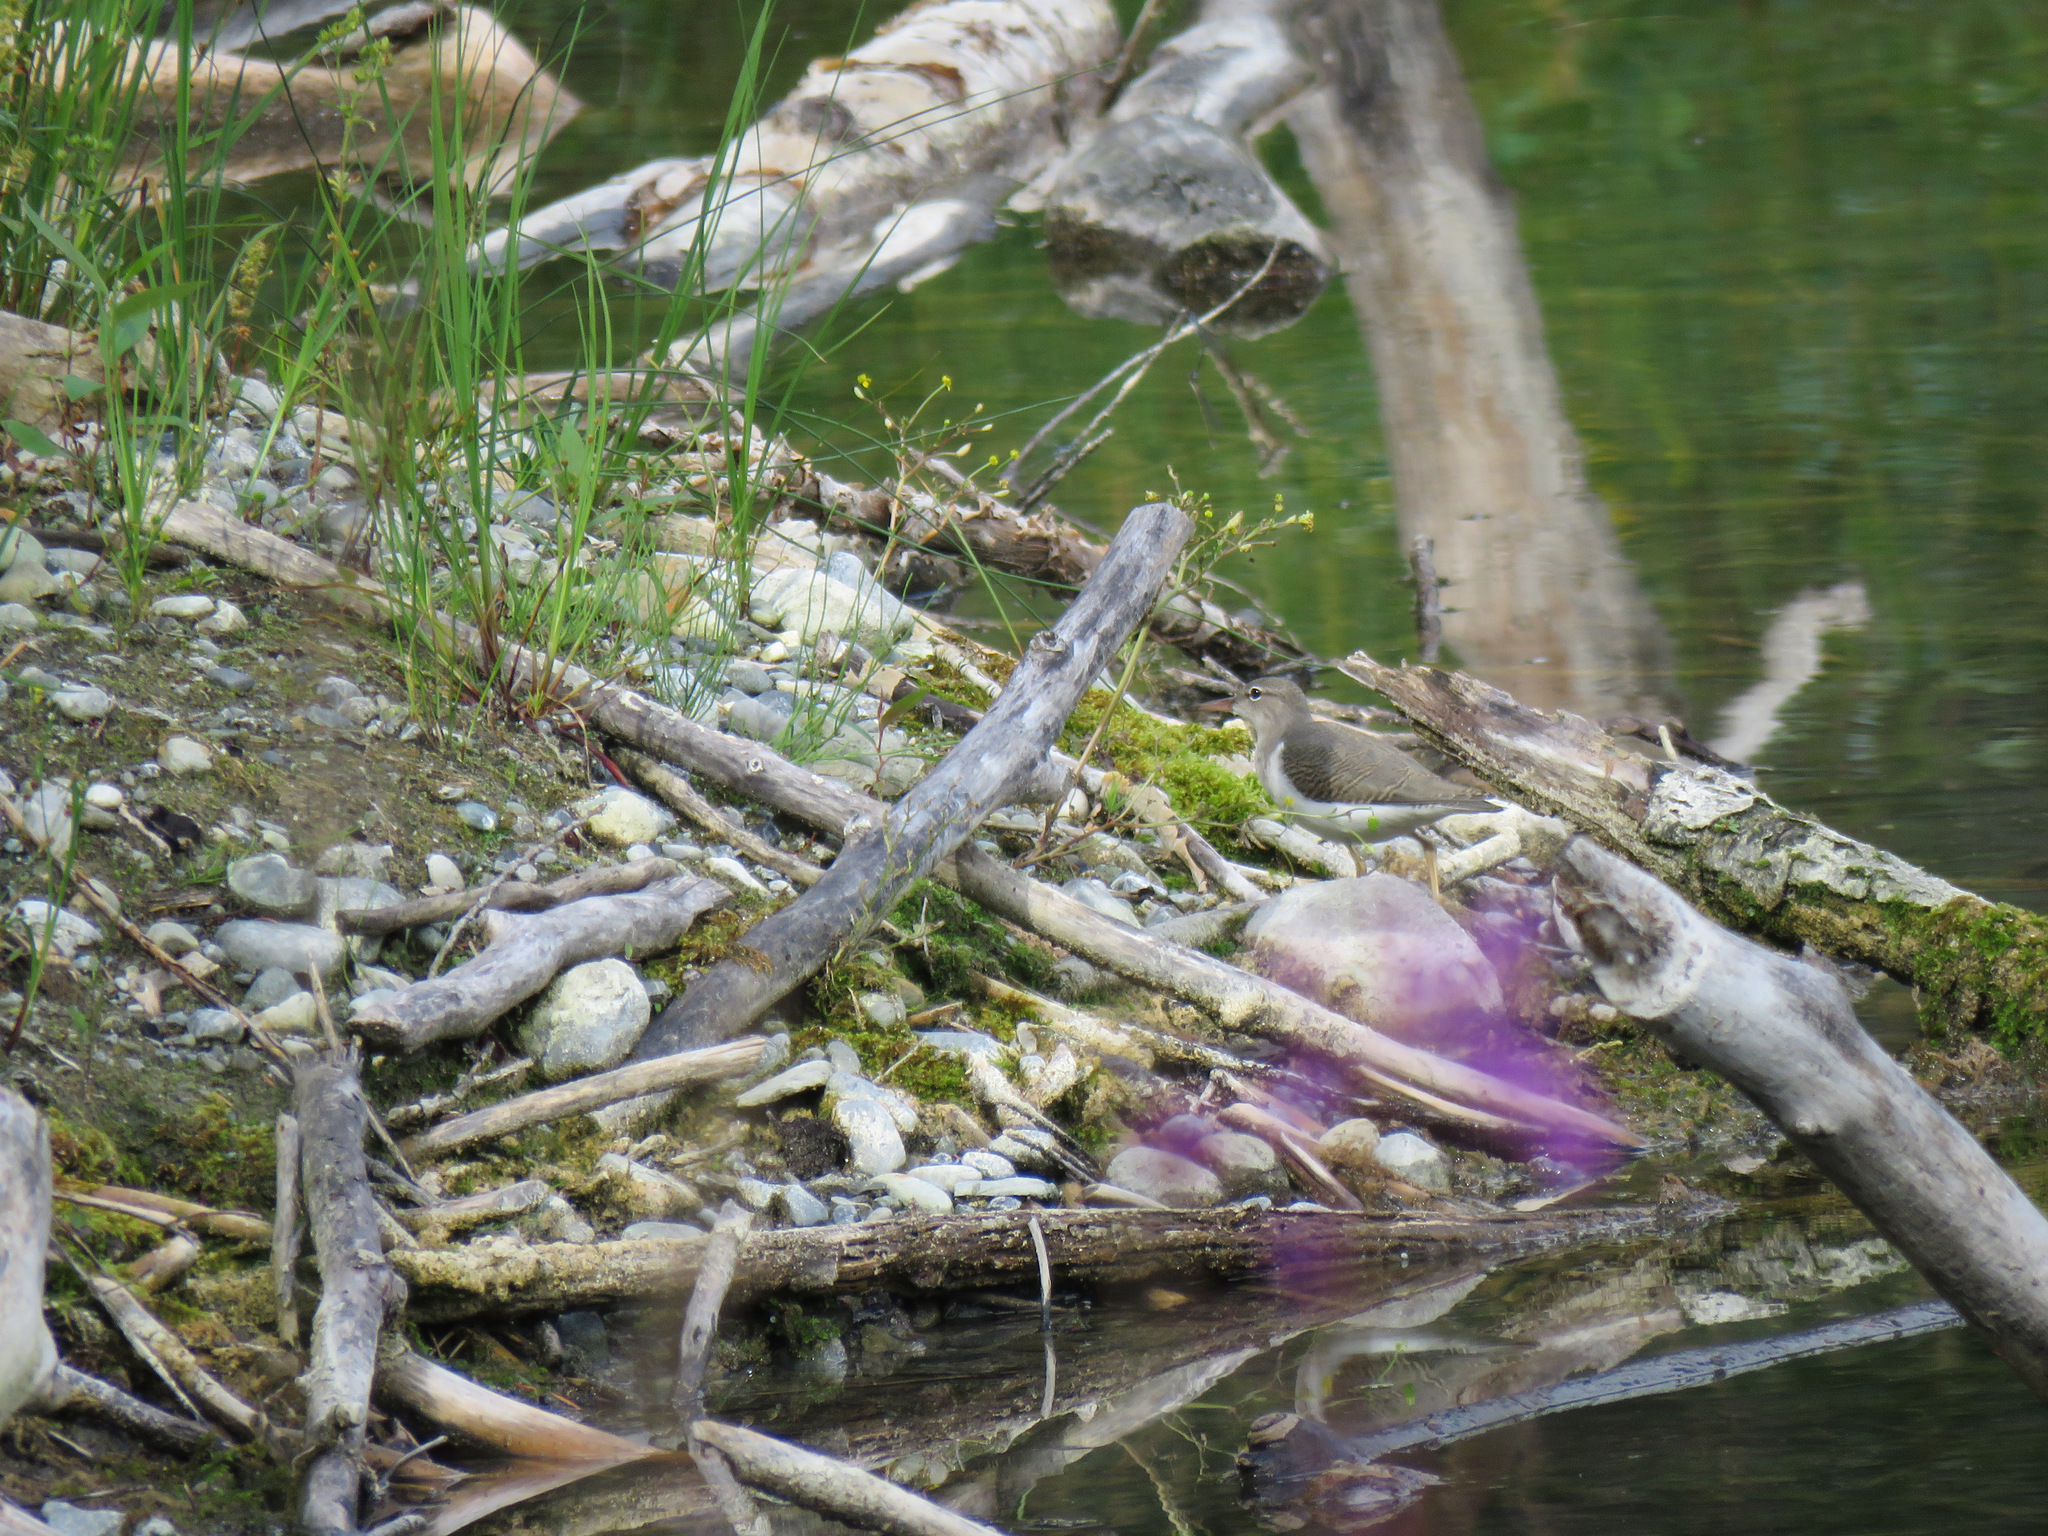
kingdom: Animalia
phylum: Chordata
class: Aves
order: Charadriiformes
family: Scolopacidae
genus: Actitis
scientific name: Actitis macularius
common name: Spotted sandpiper
